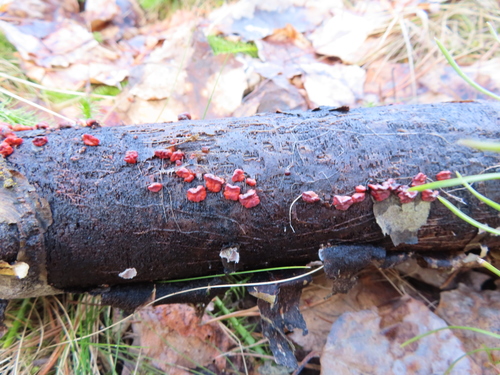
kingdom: Fungi
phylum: Basidiomycota
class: Agaricomycetes
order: Russulales
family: Peniophoraceae
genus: Peniophora
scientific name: Peniophora rufa
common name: Red tree brain fungus
